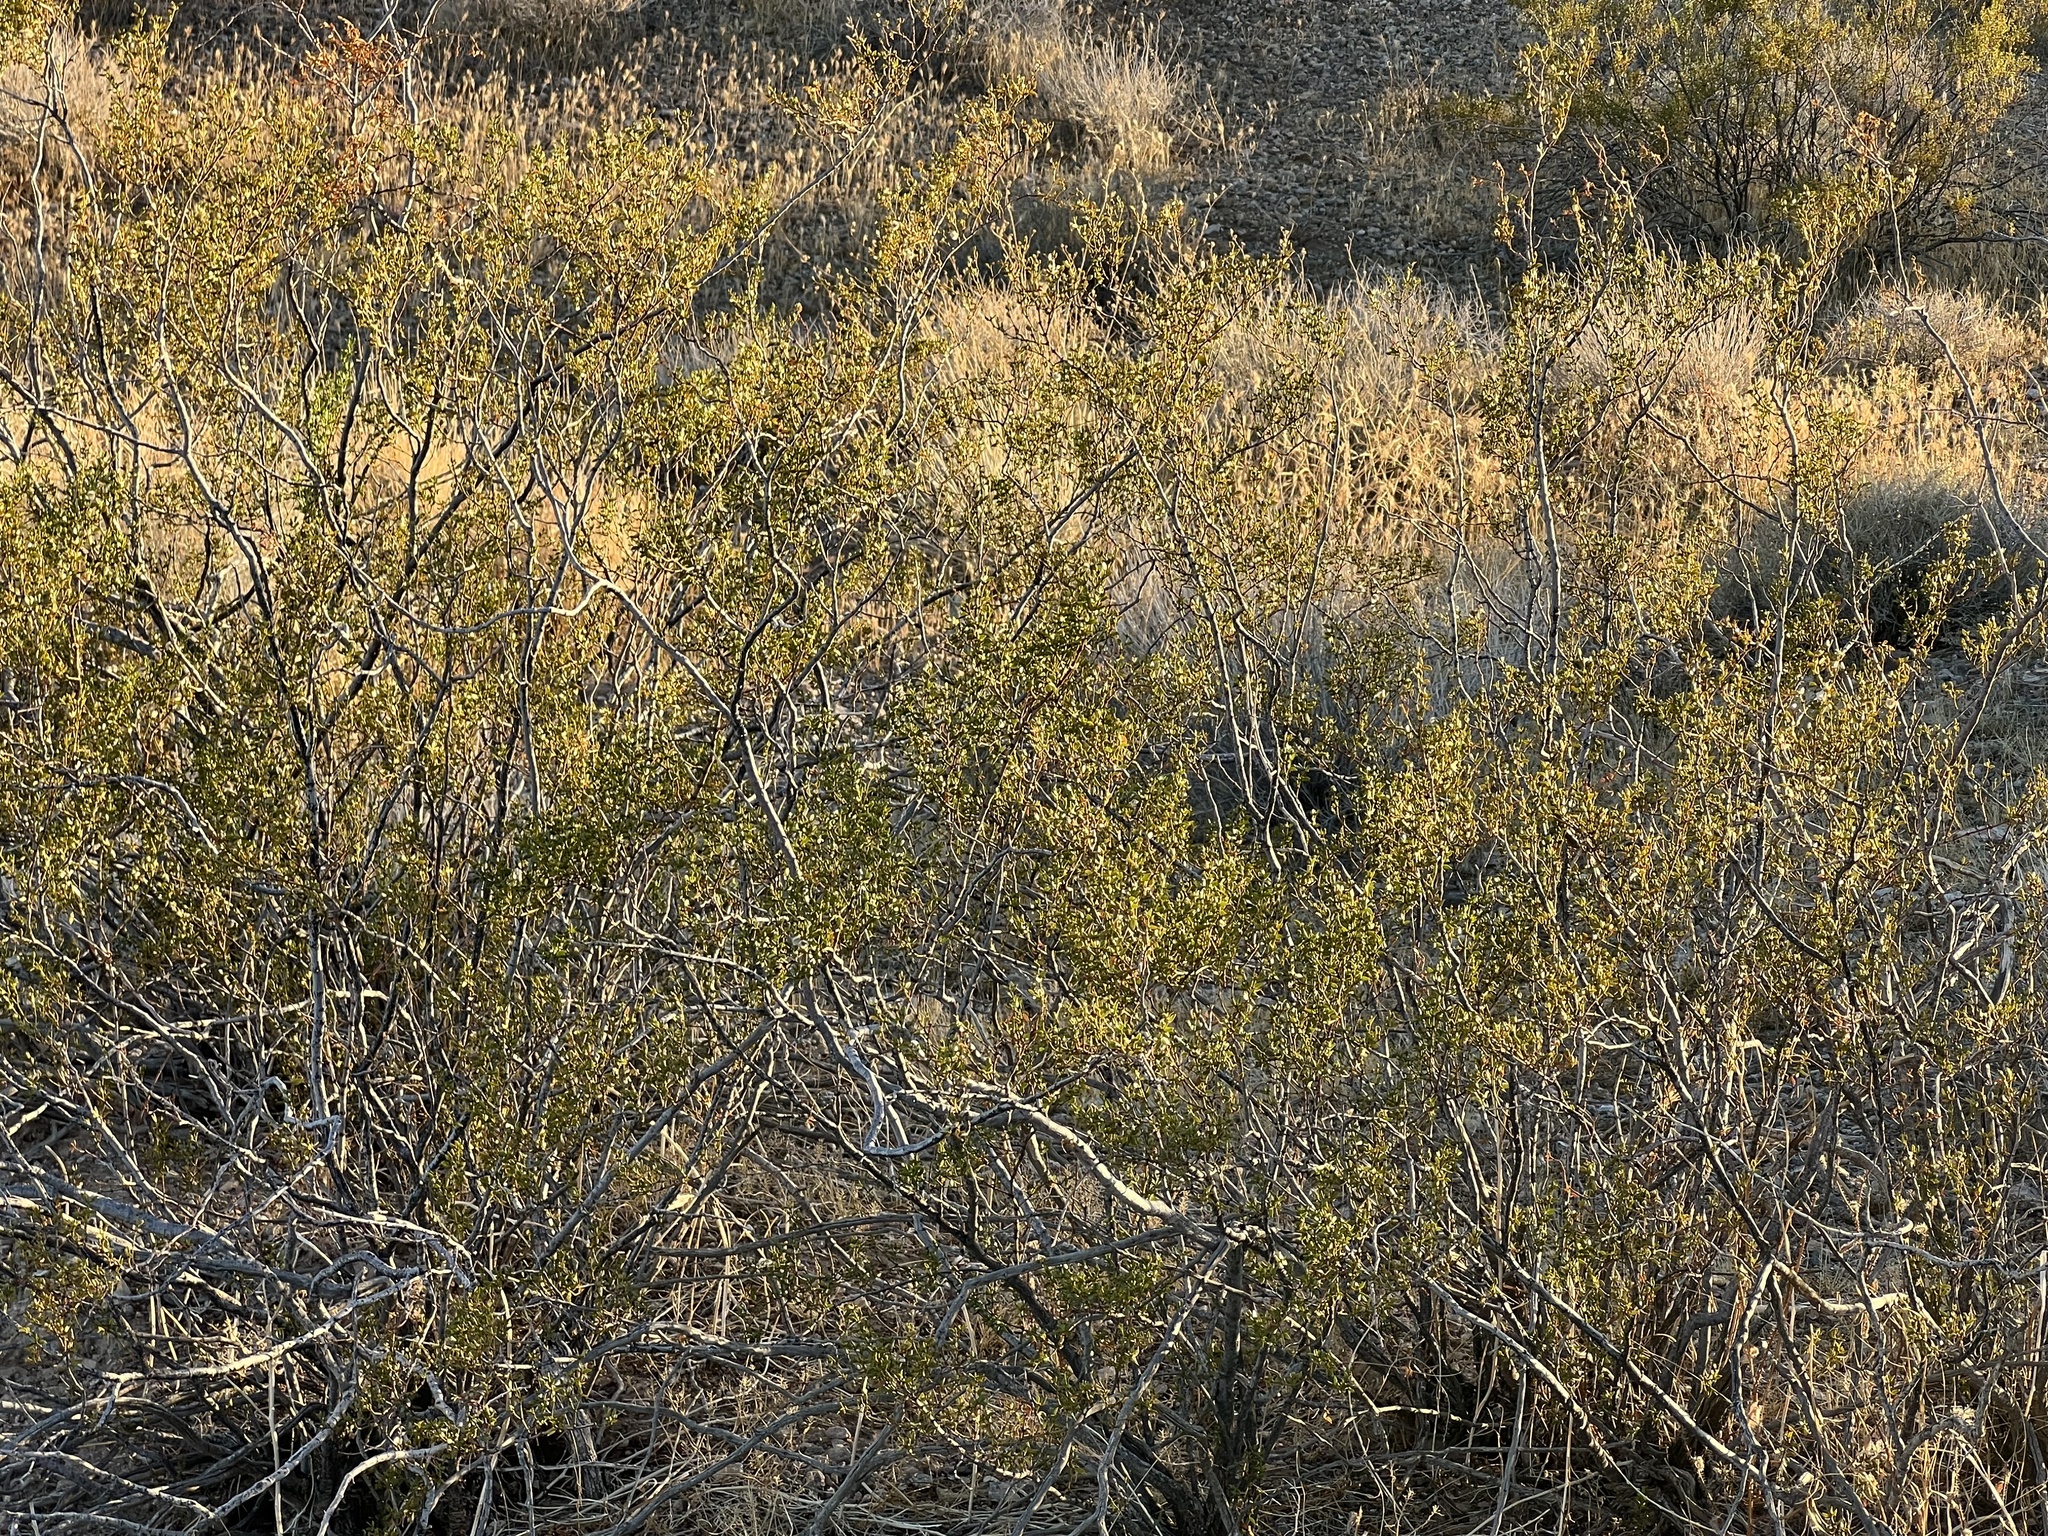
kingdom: Plantae
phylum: Tracheophyta
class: Magnoliopsida
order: Zygophyllales
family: Zygophyllaceae
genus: Larrea
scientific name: Larrea tridentata
